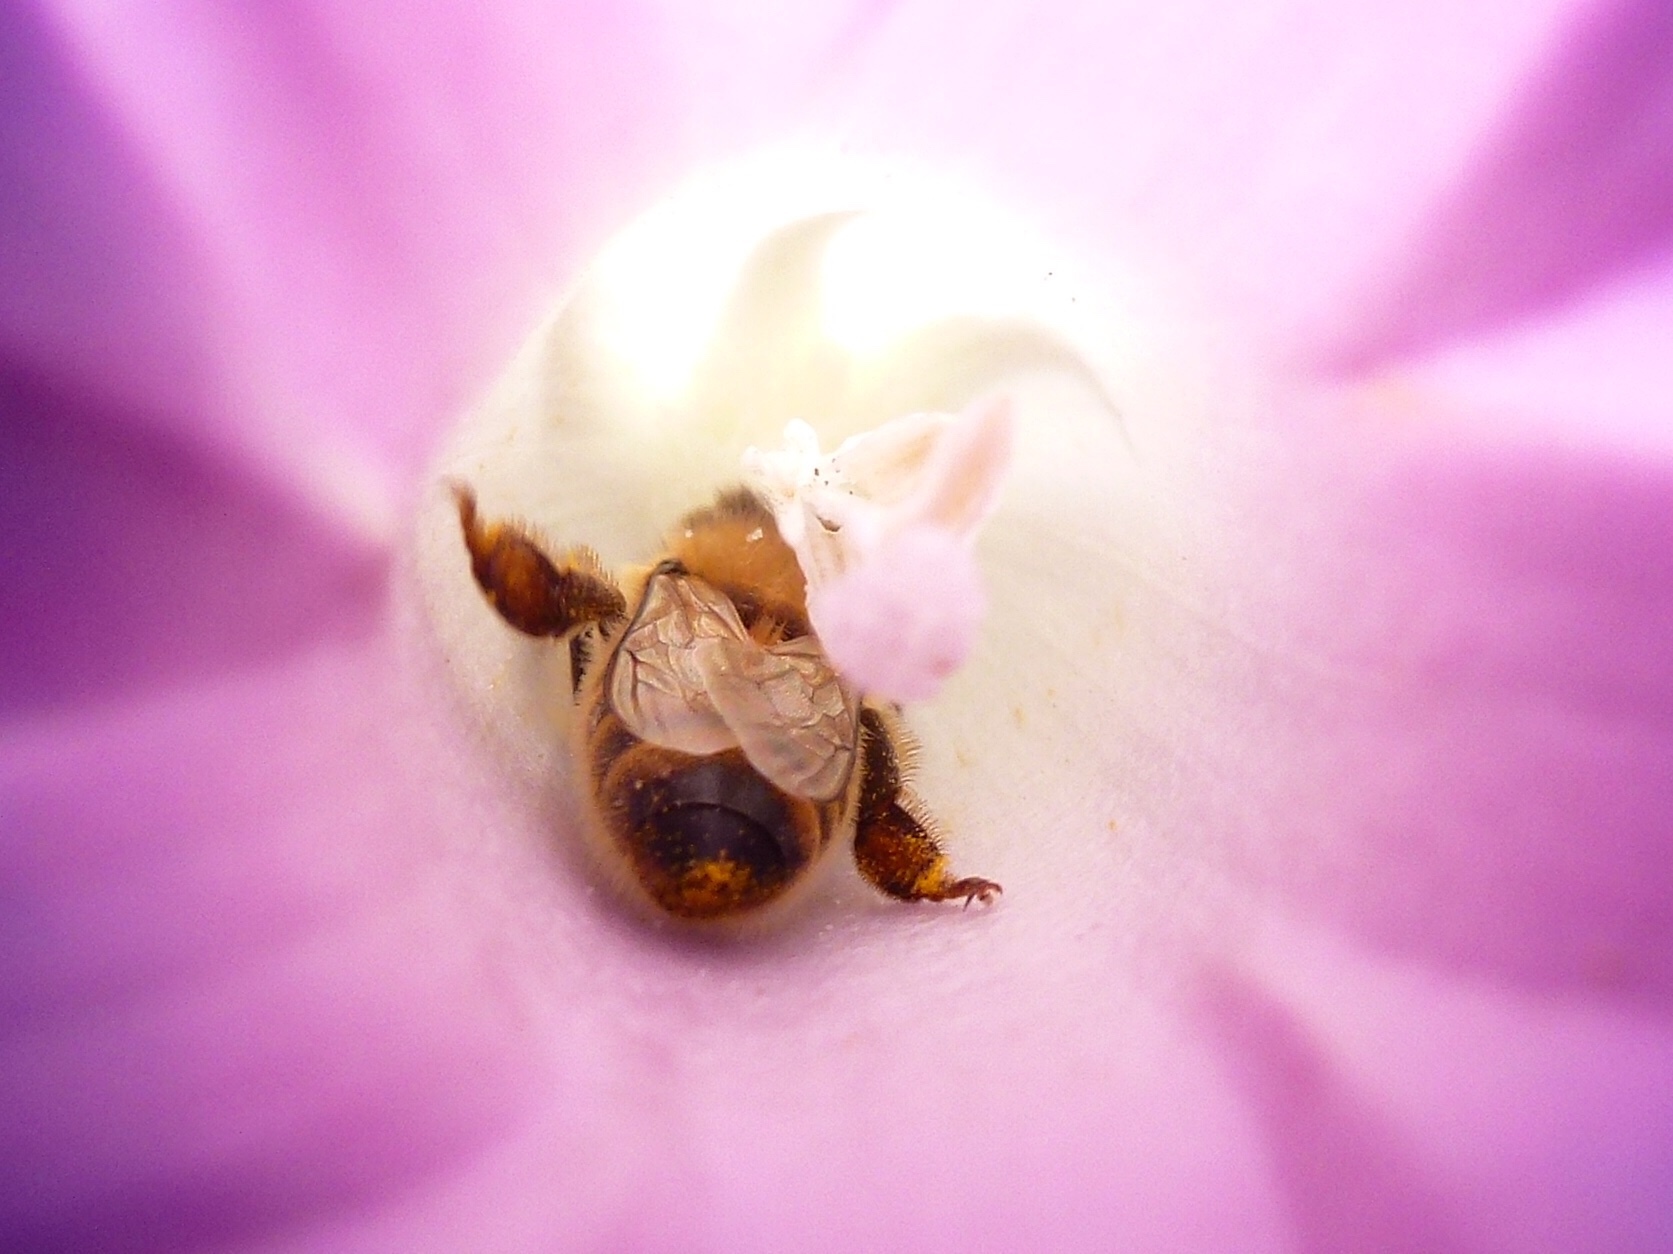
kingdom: Animalia
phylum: Arthropoda
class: Insecta
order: Hymenoptera
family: Apidae
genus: Apis
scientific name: Apis mellifera
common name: Honey bee
